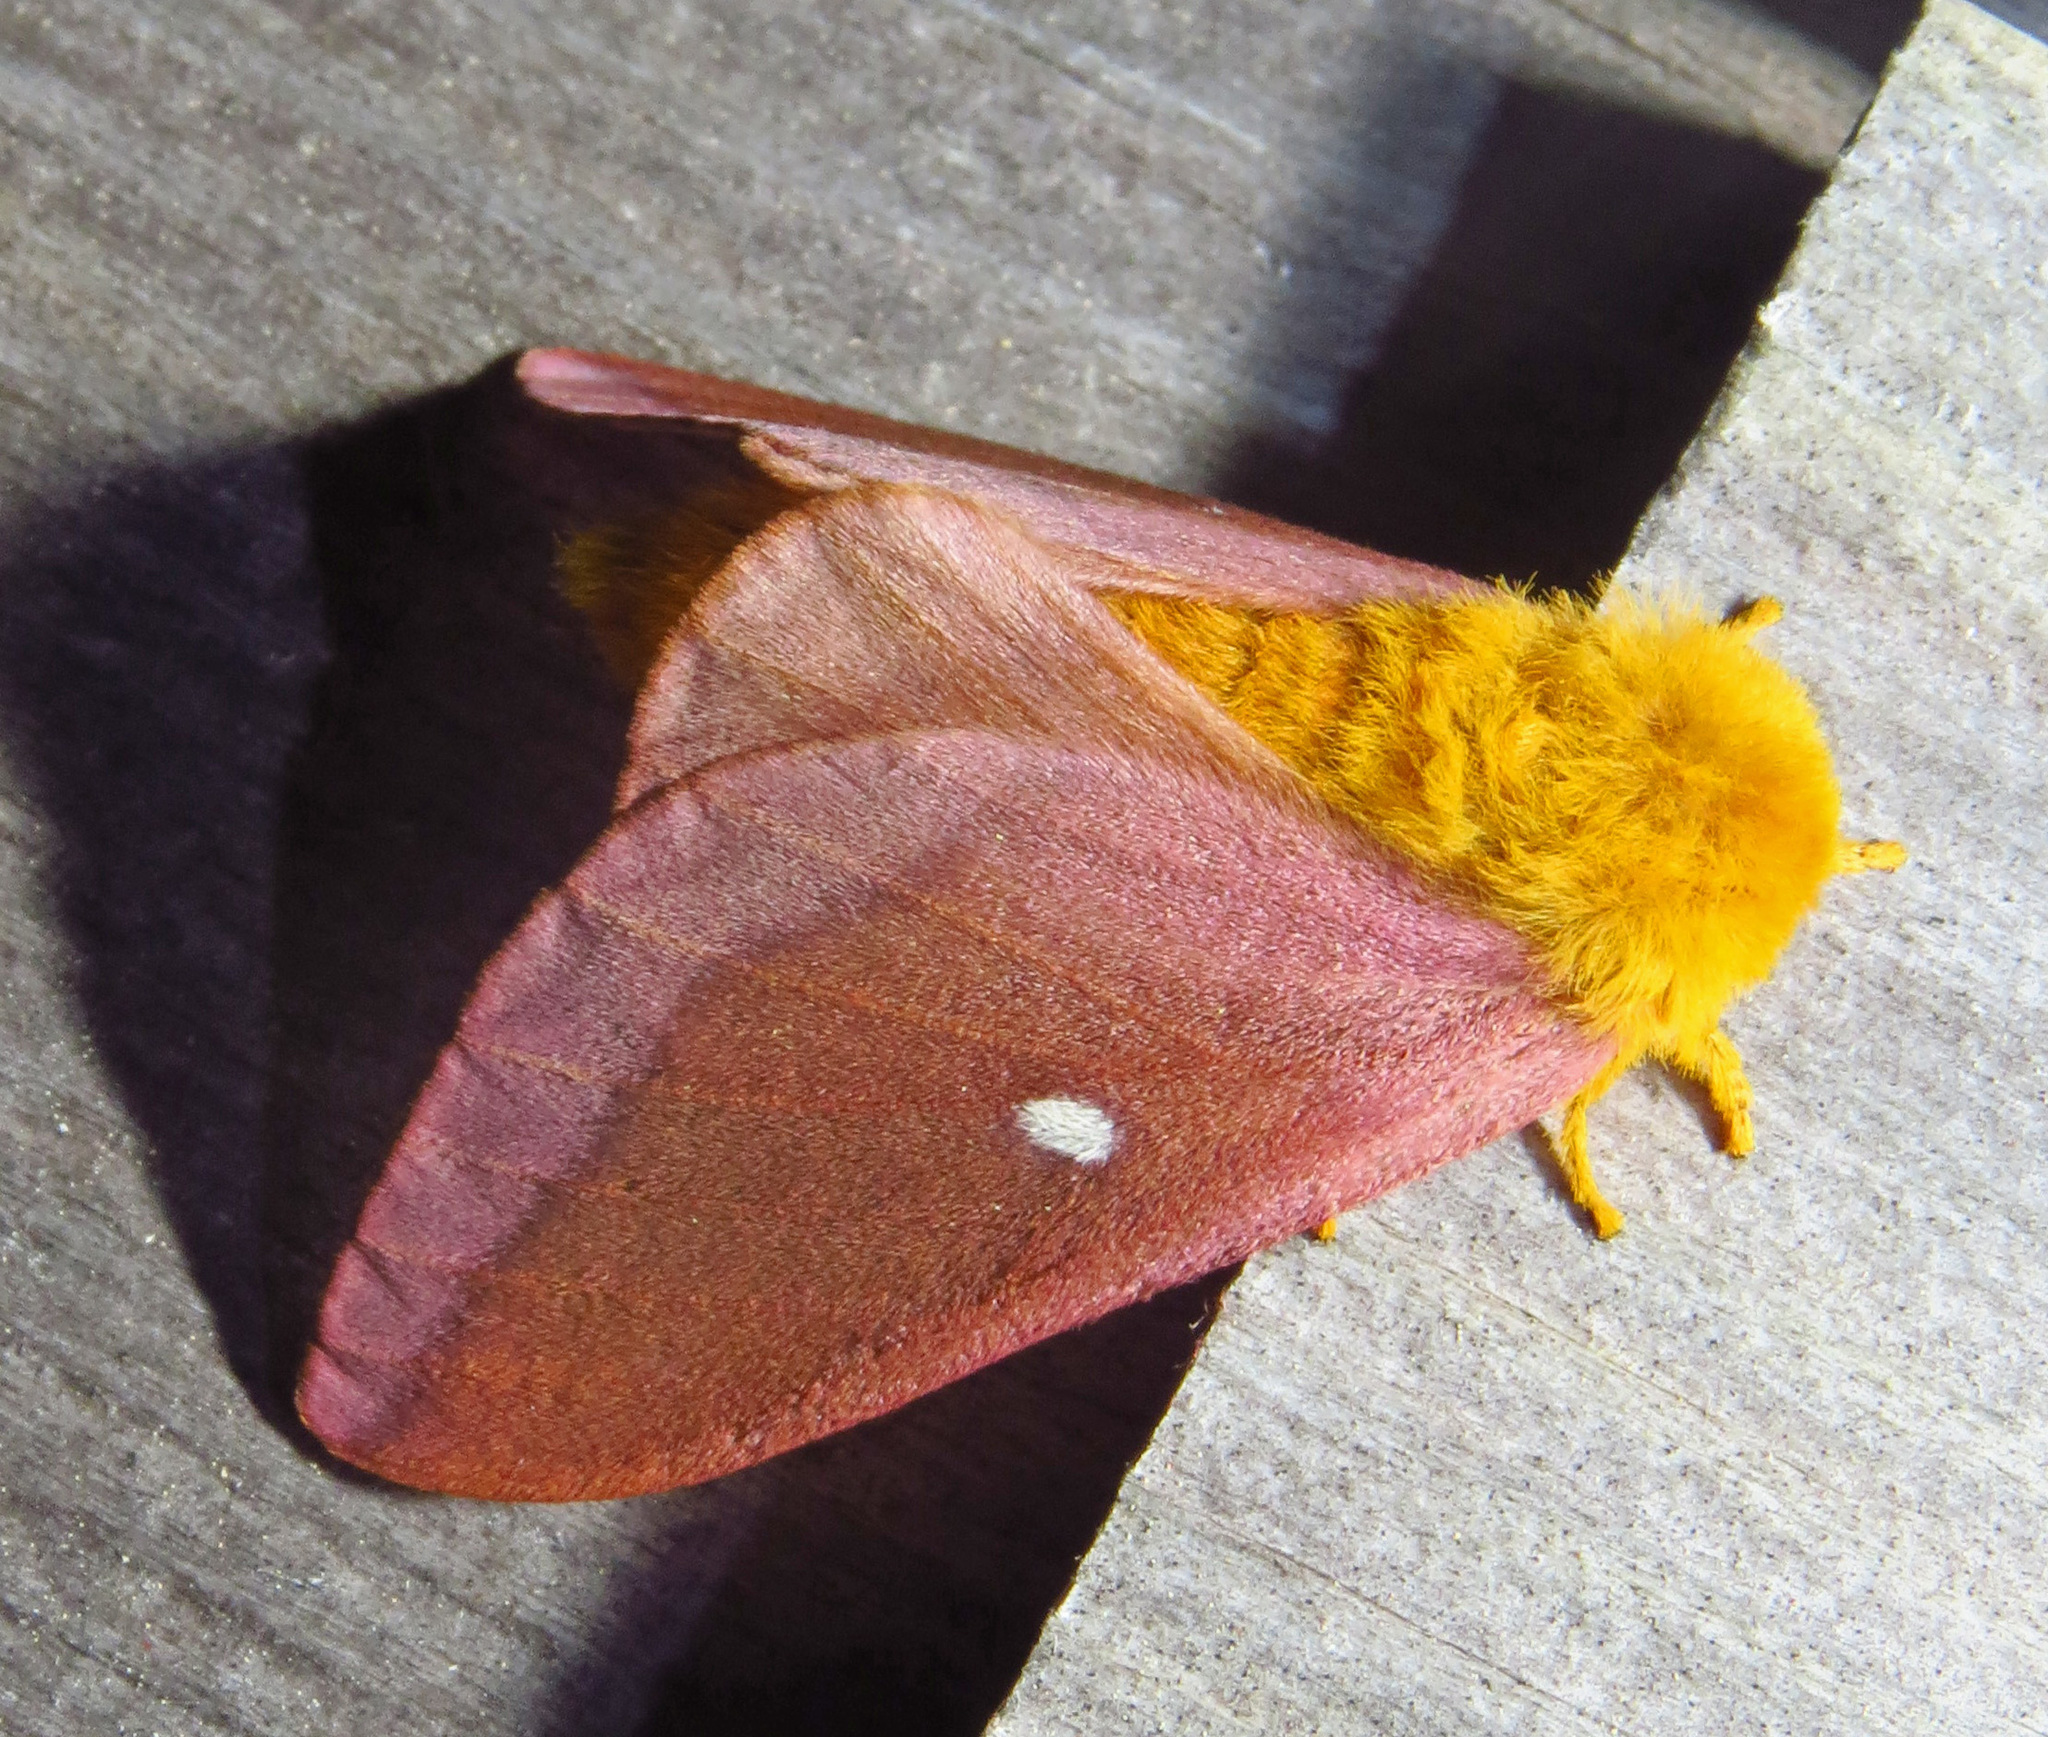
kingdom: Animalia
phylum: Arthropoda
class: Insecta
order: Lepidoptera
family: Saturniidae
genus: Anisota
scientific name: Anisota virginiensis
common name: Pink striped oakworm moth
